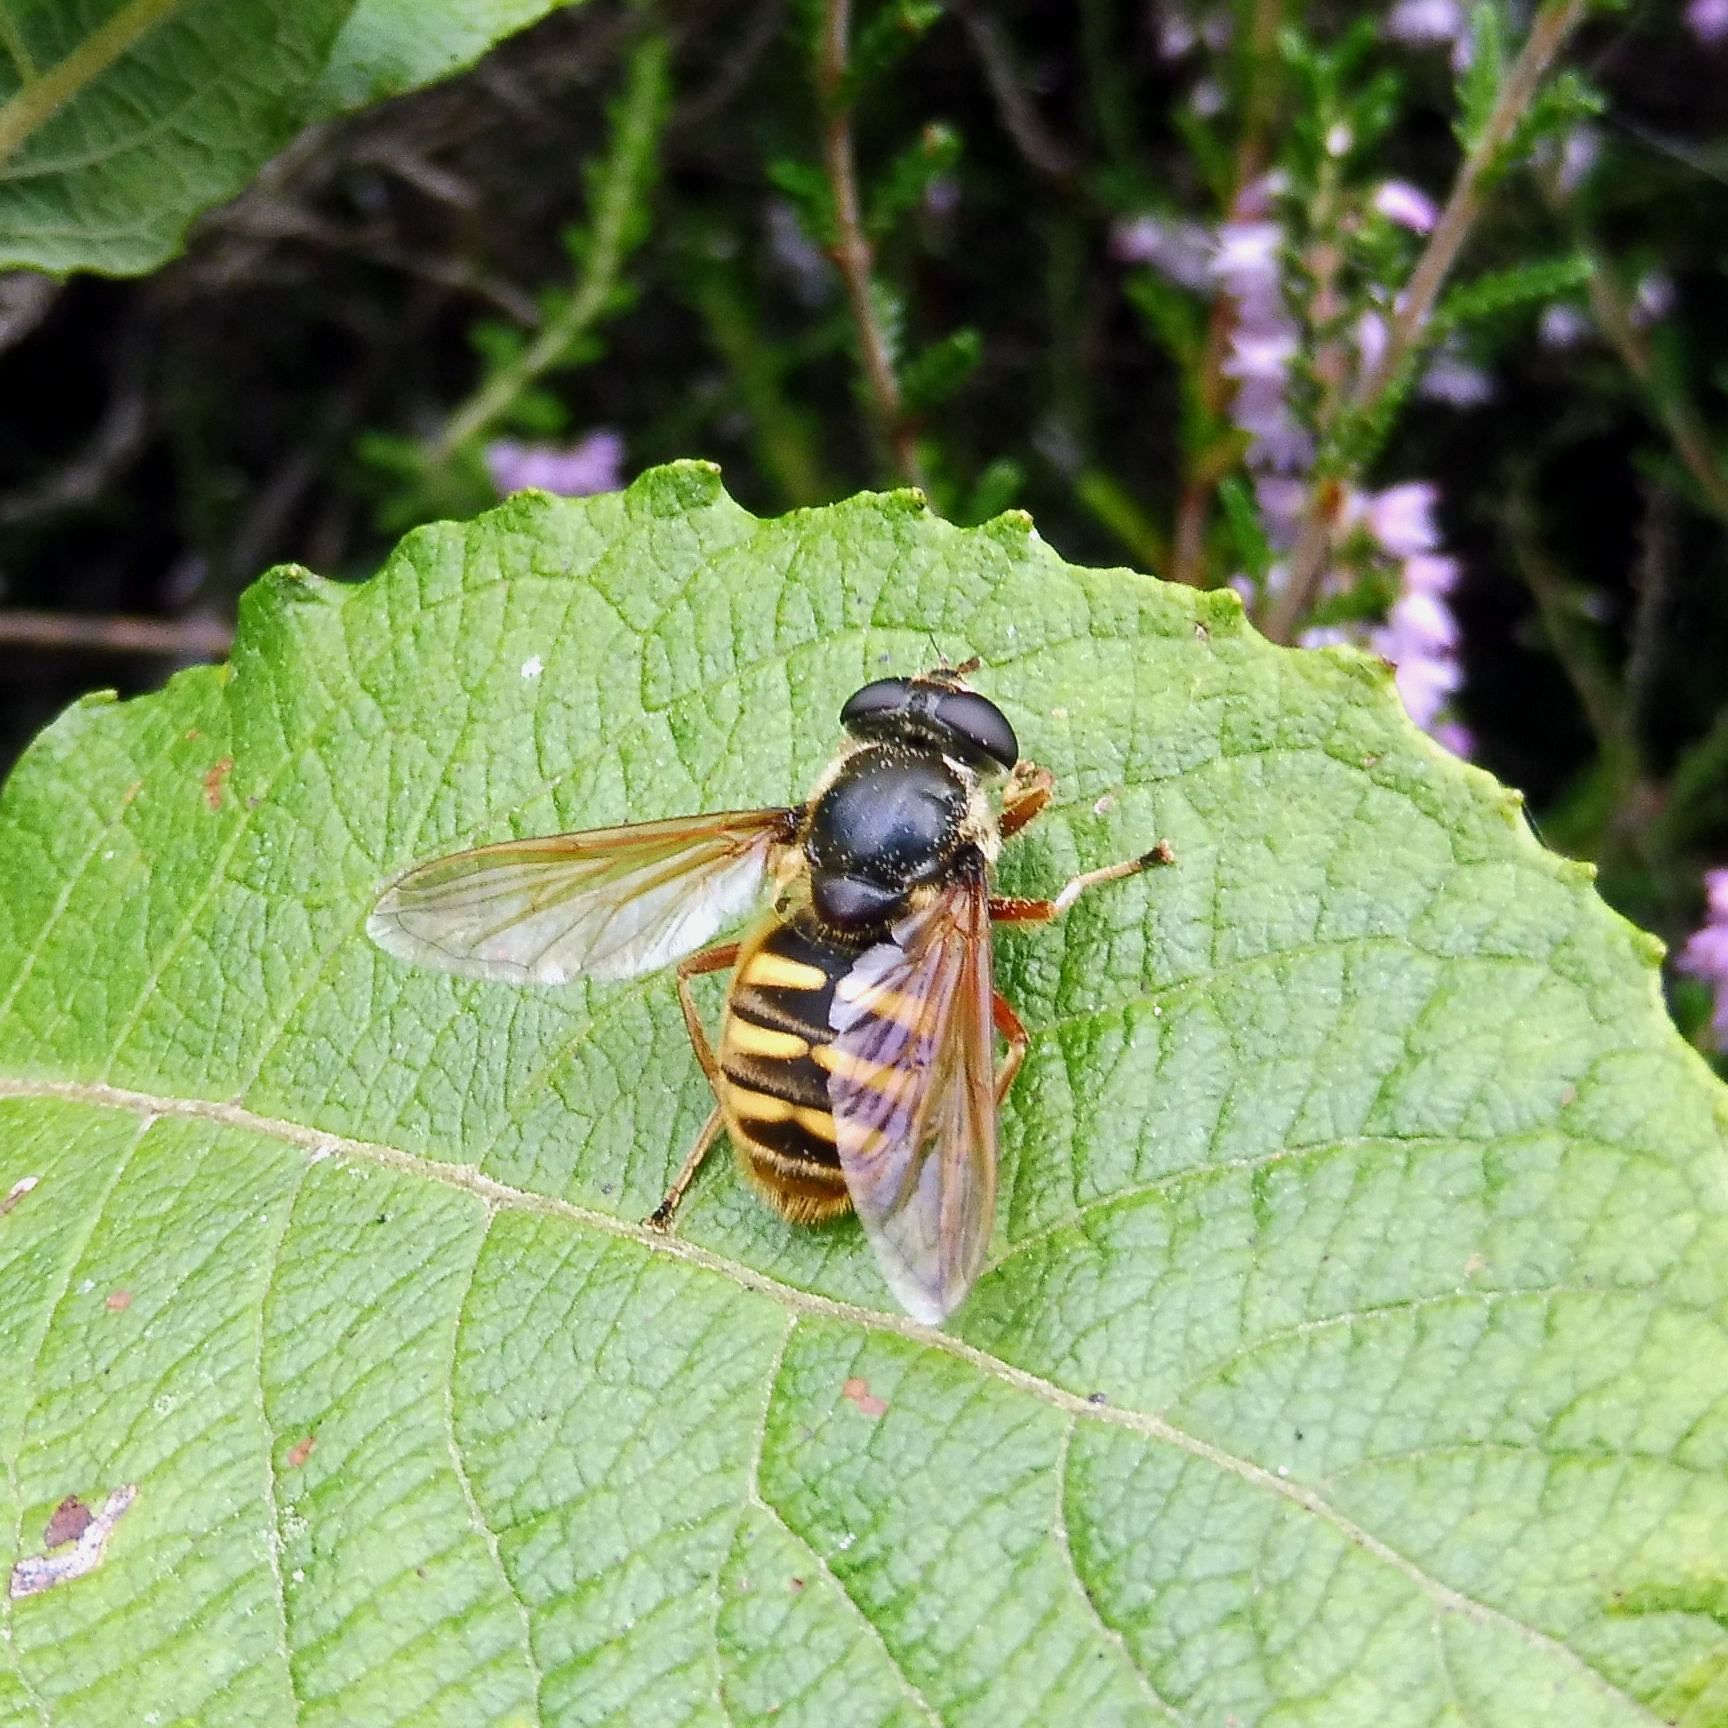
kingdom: Animalia
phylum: Arthropoda
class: Insecta
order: Diptera
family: Syrphidae
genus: Sericomyia
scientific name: Sericomyia silentis
